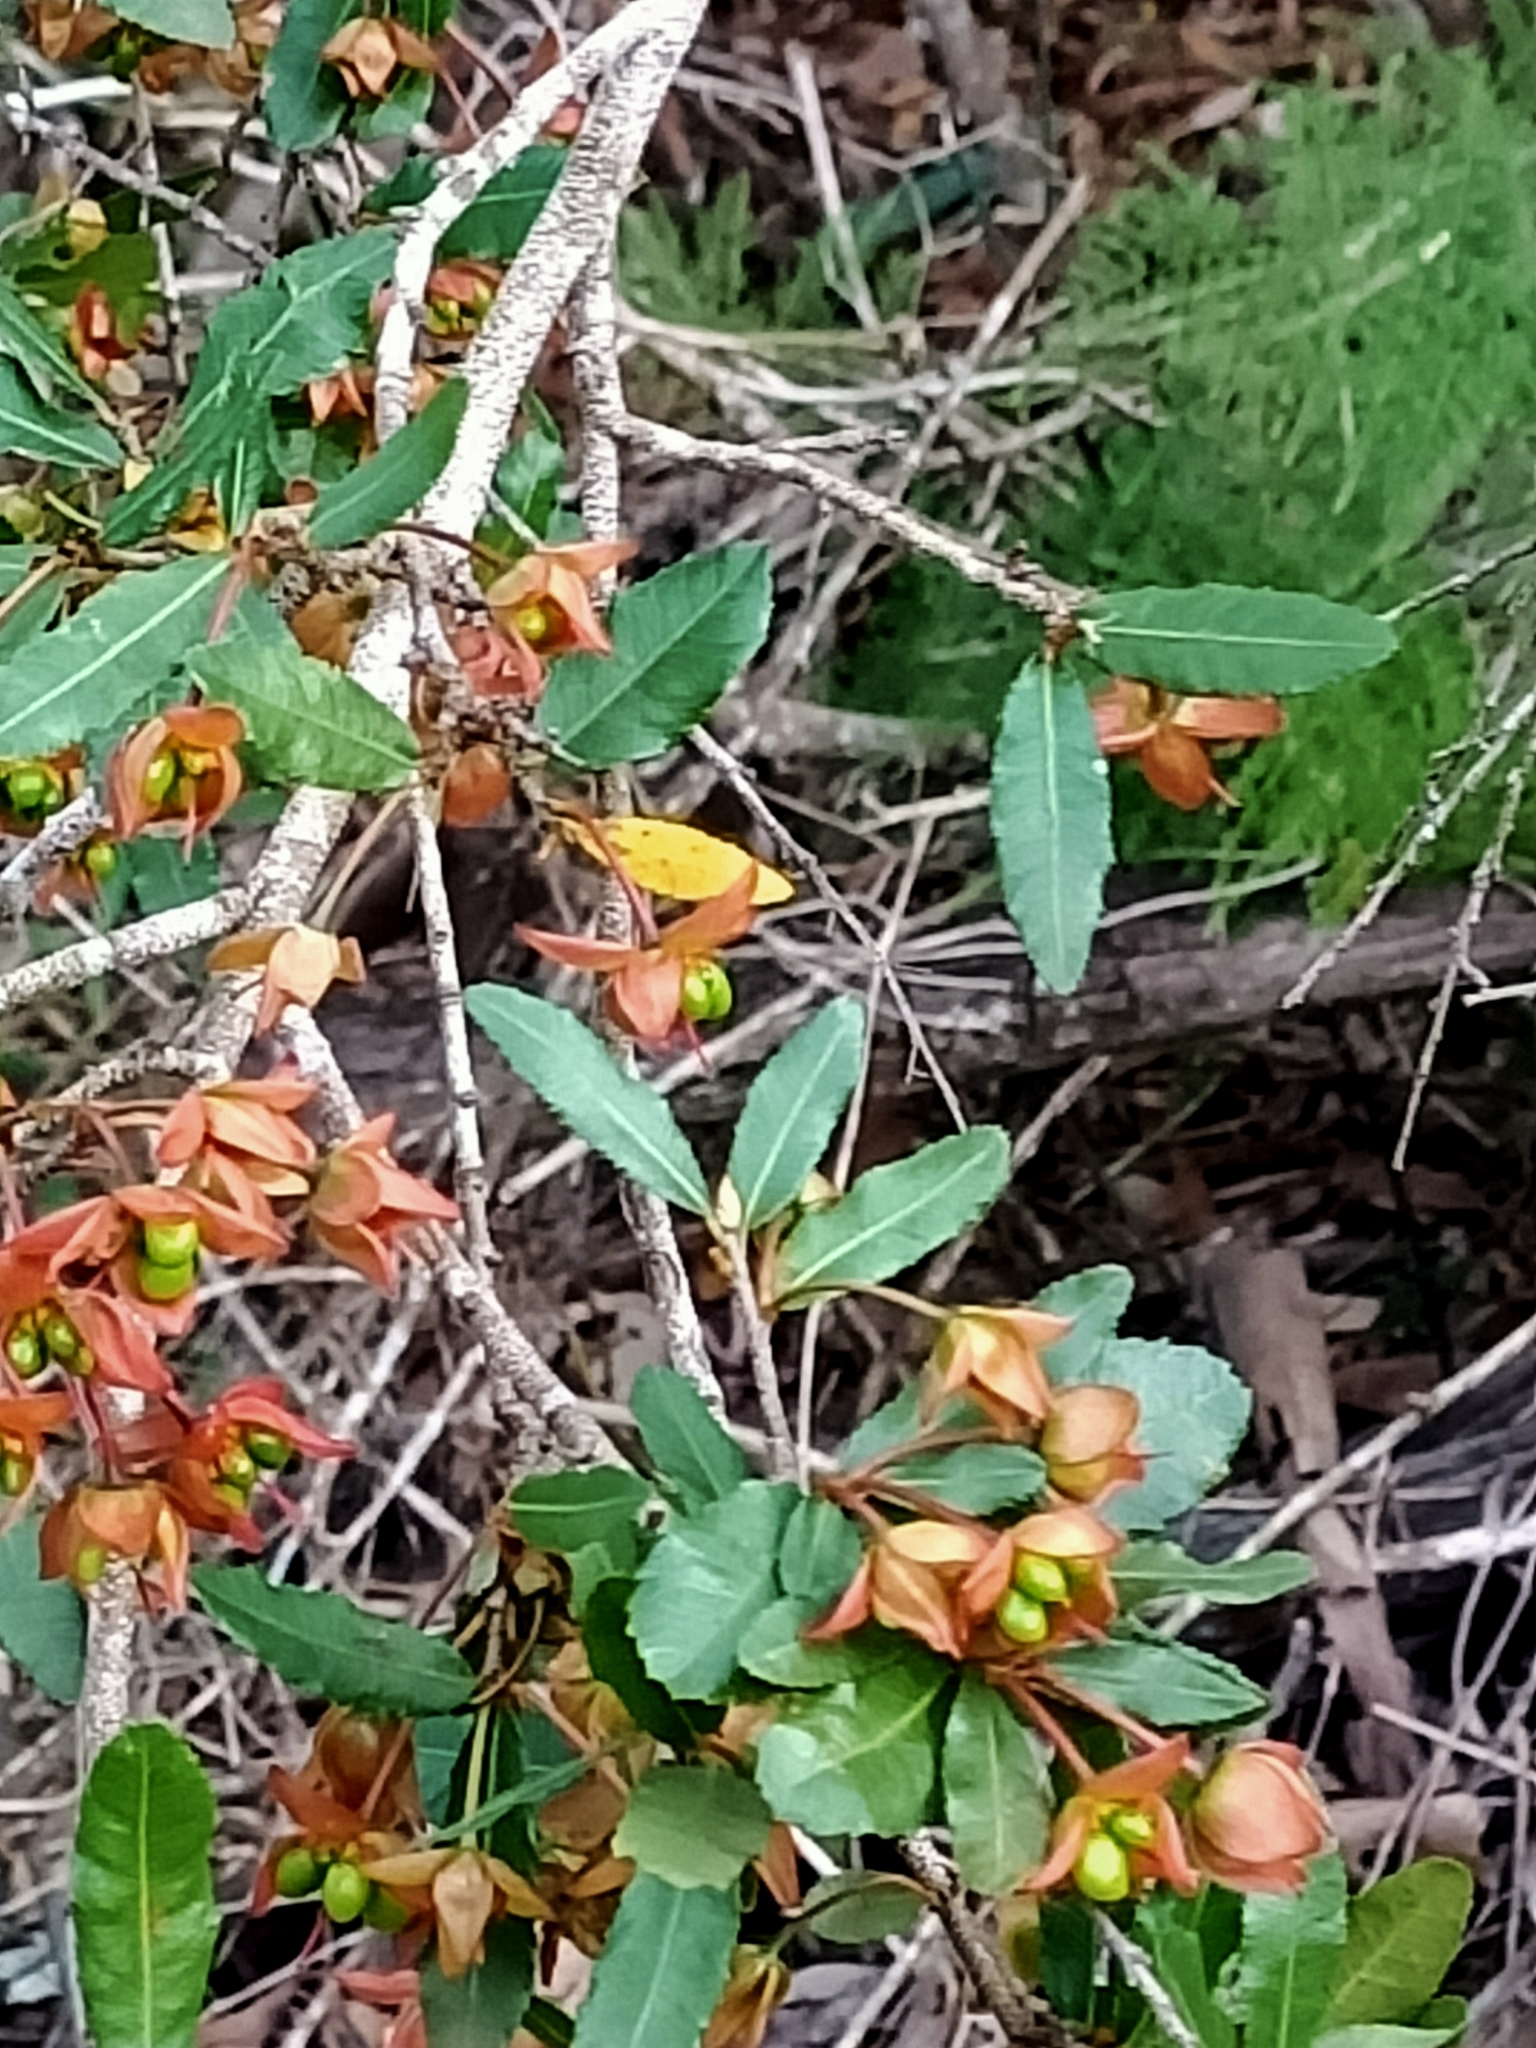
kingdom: Plantae
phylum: Tracheophyta
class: Magnoliopsida
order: Malpighiales
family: Ochnaceae
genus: Ochna
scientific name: Ochna serrulata
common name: Mickey mouse plant
